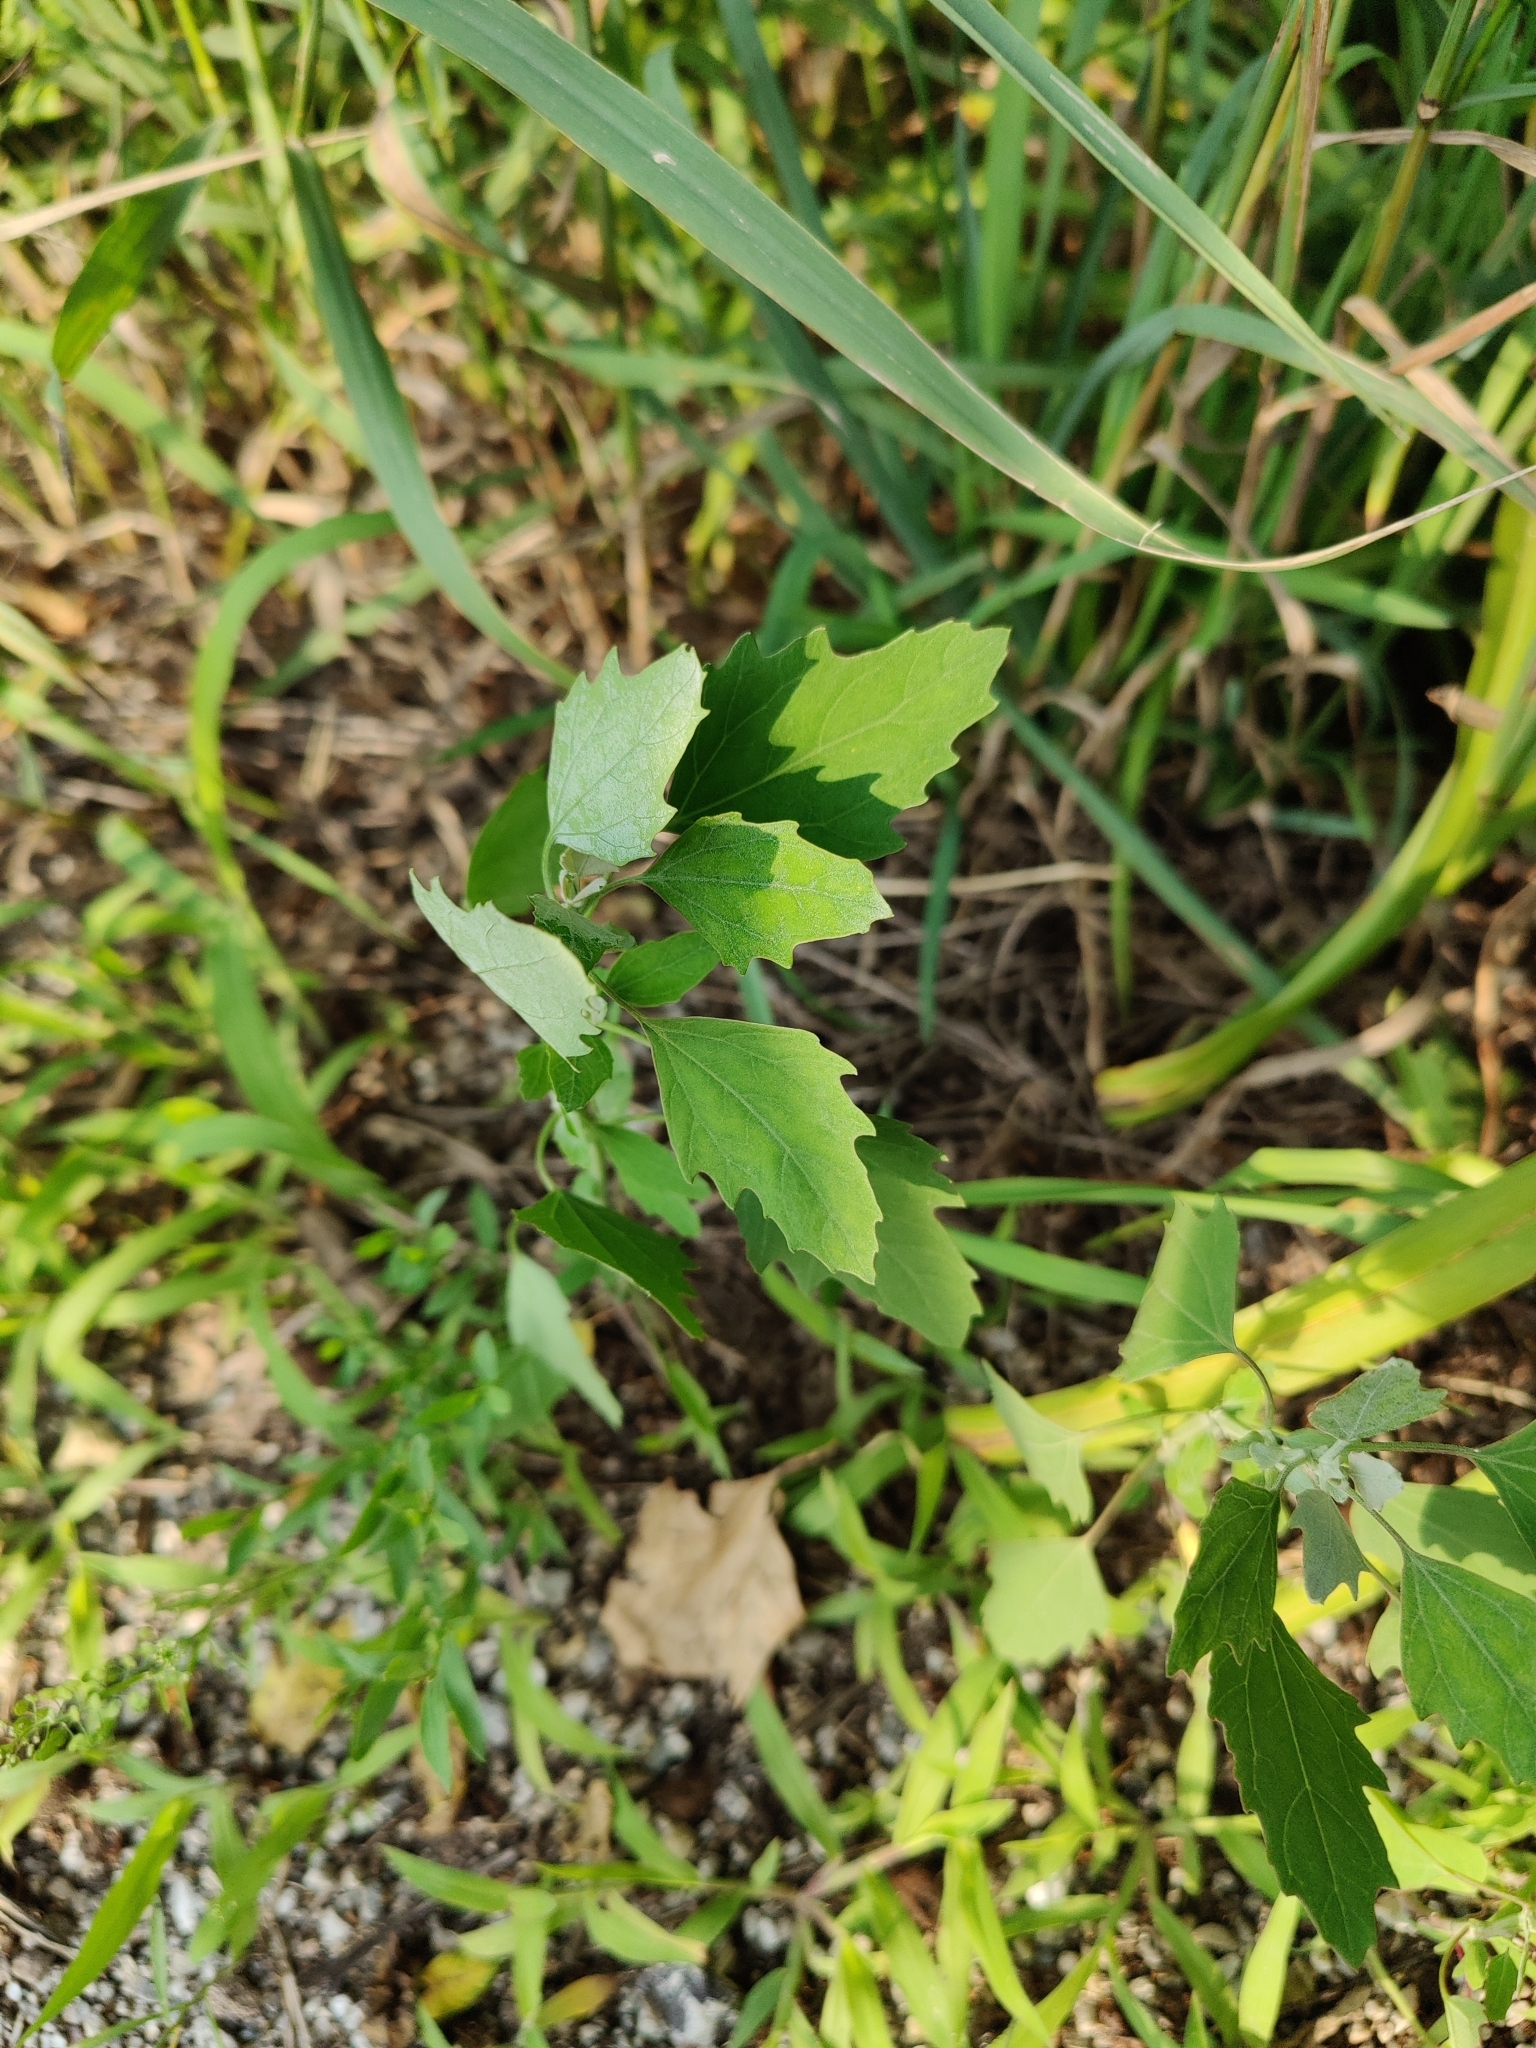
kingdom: Plantae
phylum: Tracheophyta
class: Magnoliopsida
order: Caryophyllales
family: Amaranthaceae
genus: Chenopodium
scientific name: Chenopodium album
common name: Fat-hen
